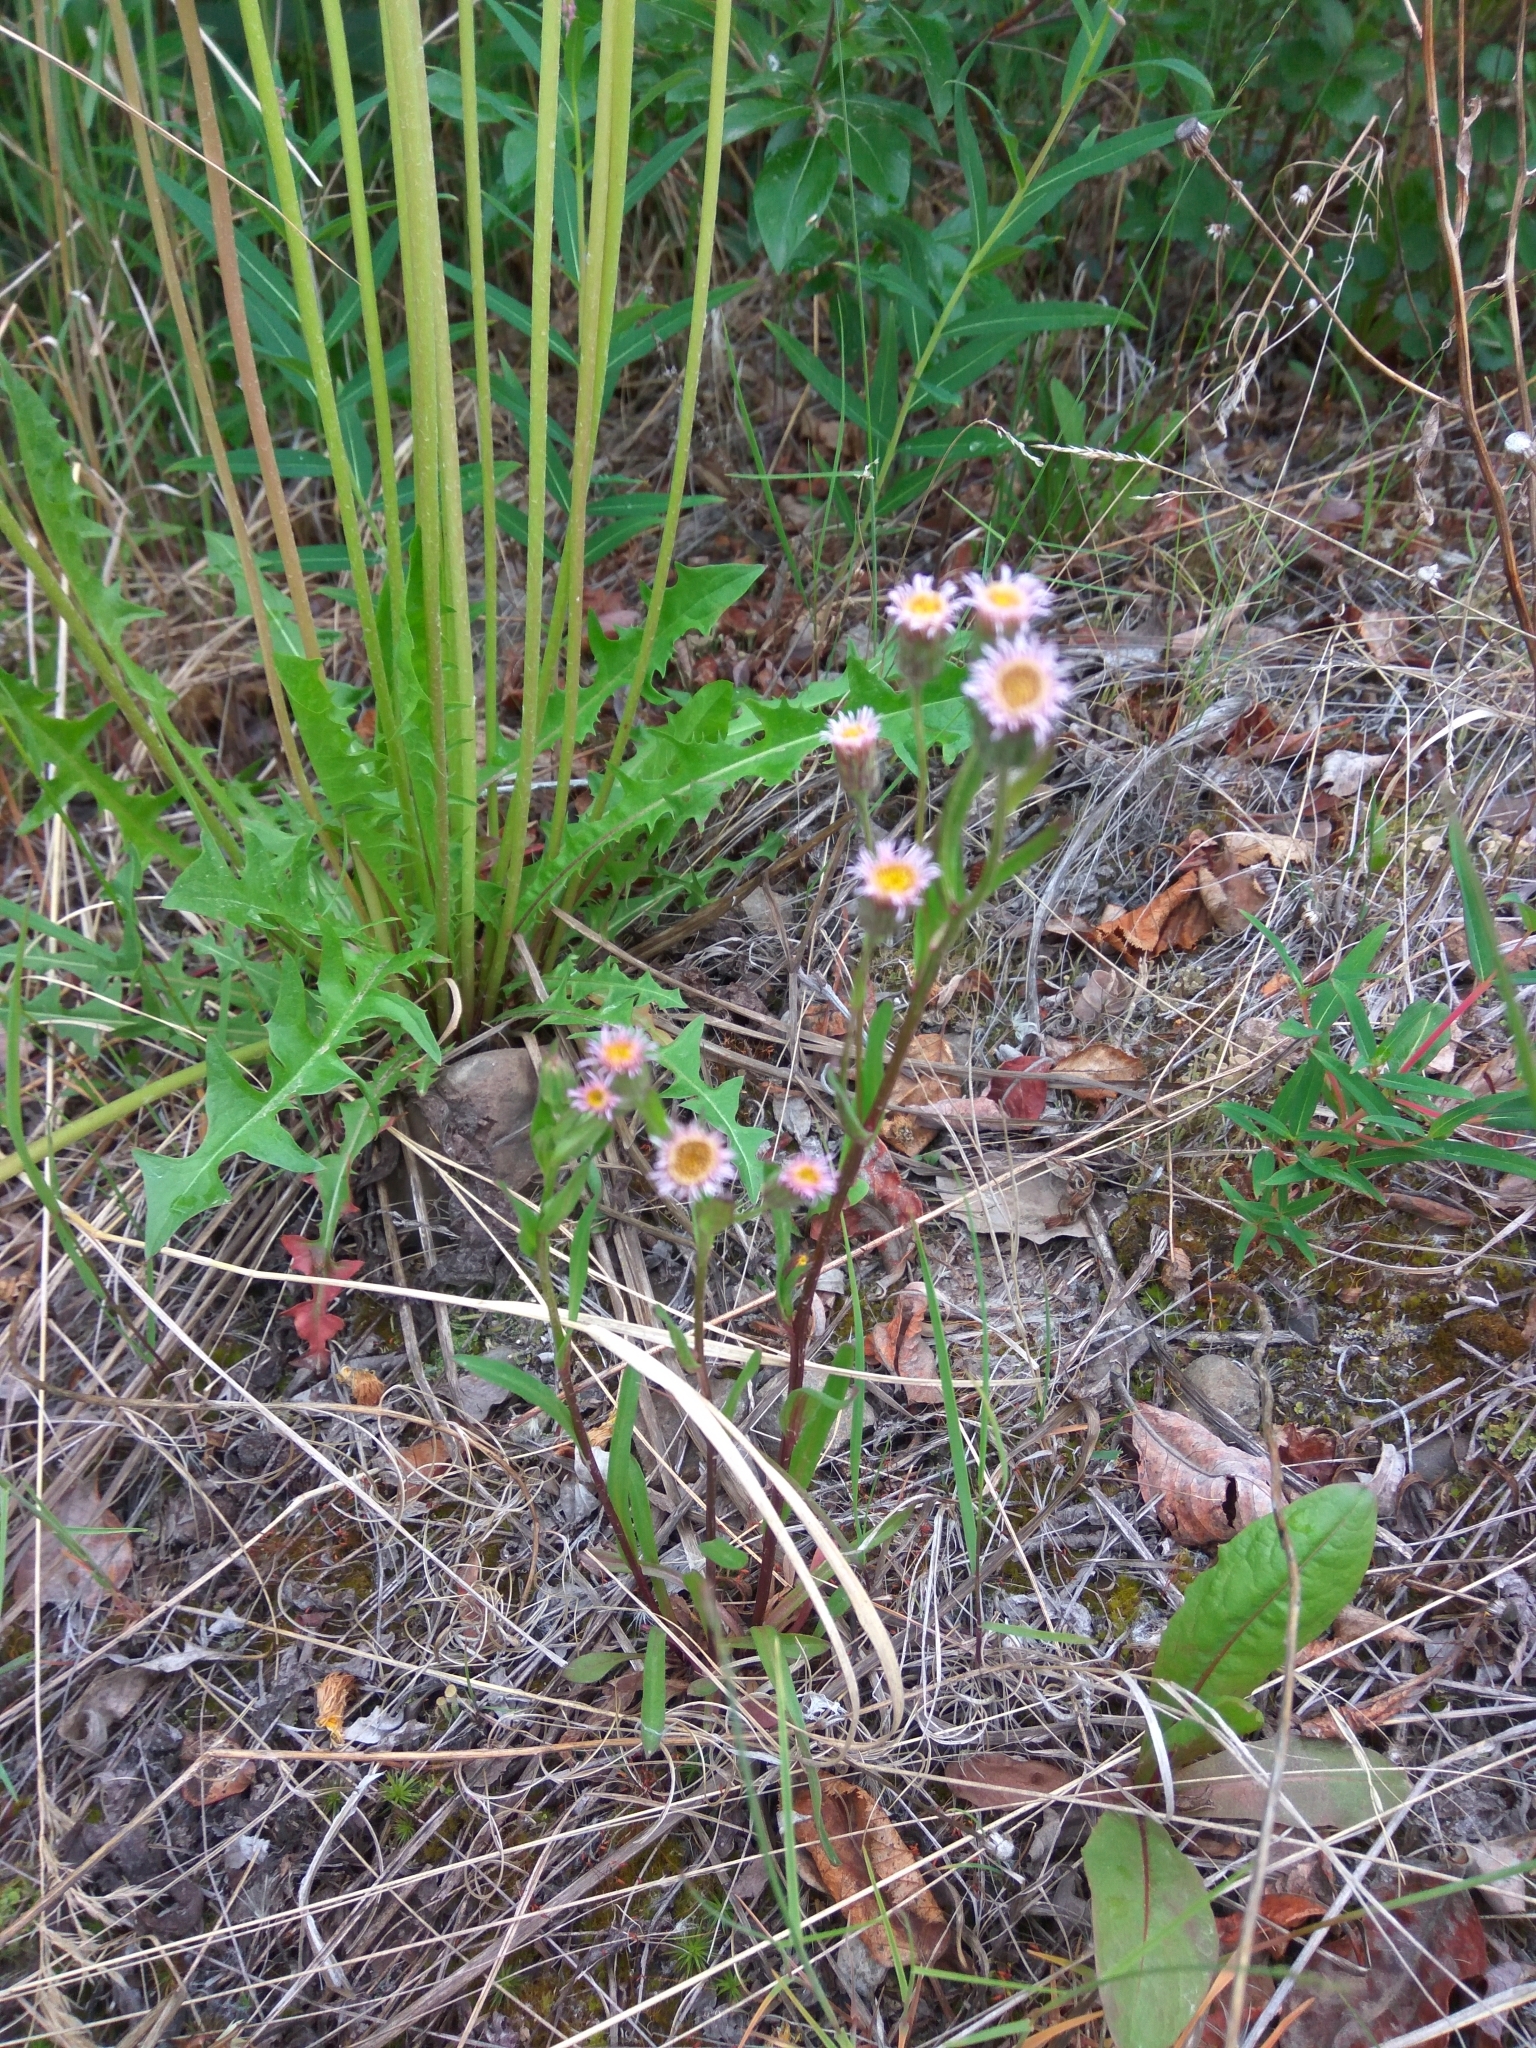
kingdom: Plantae
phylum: Tracheophyta
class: Magnoliopsida
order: Asterales
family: Asteraceae
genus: Erigeron
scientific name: Erigeron kamtschaticus
